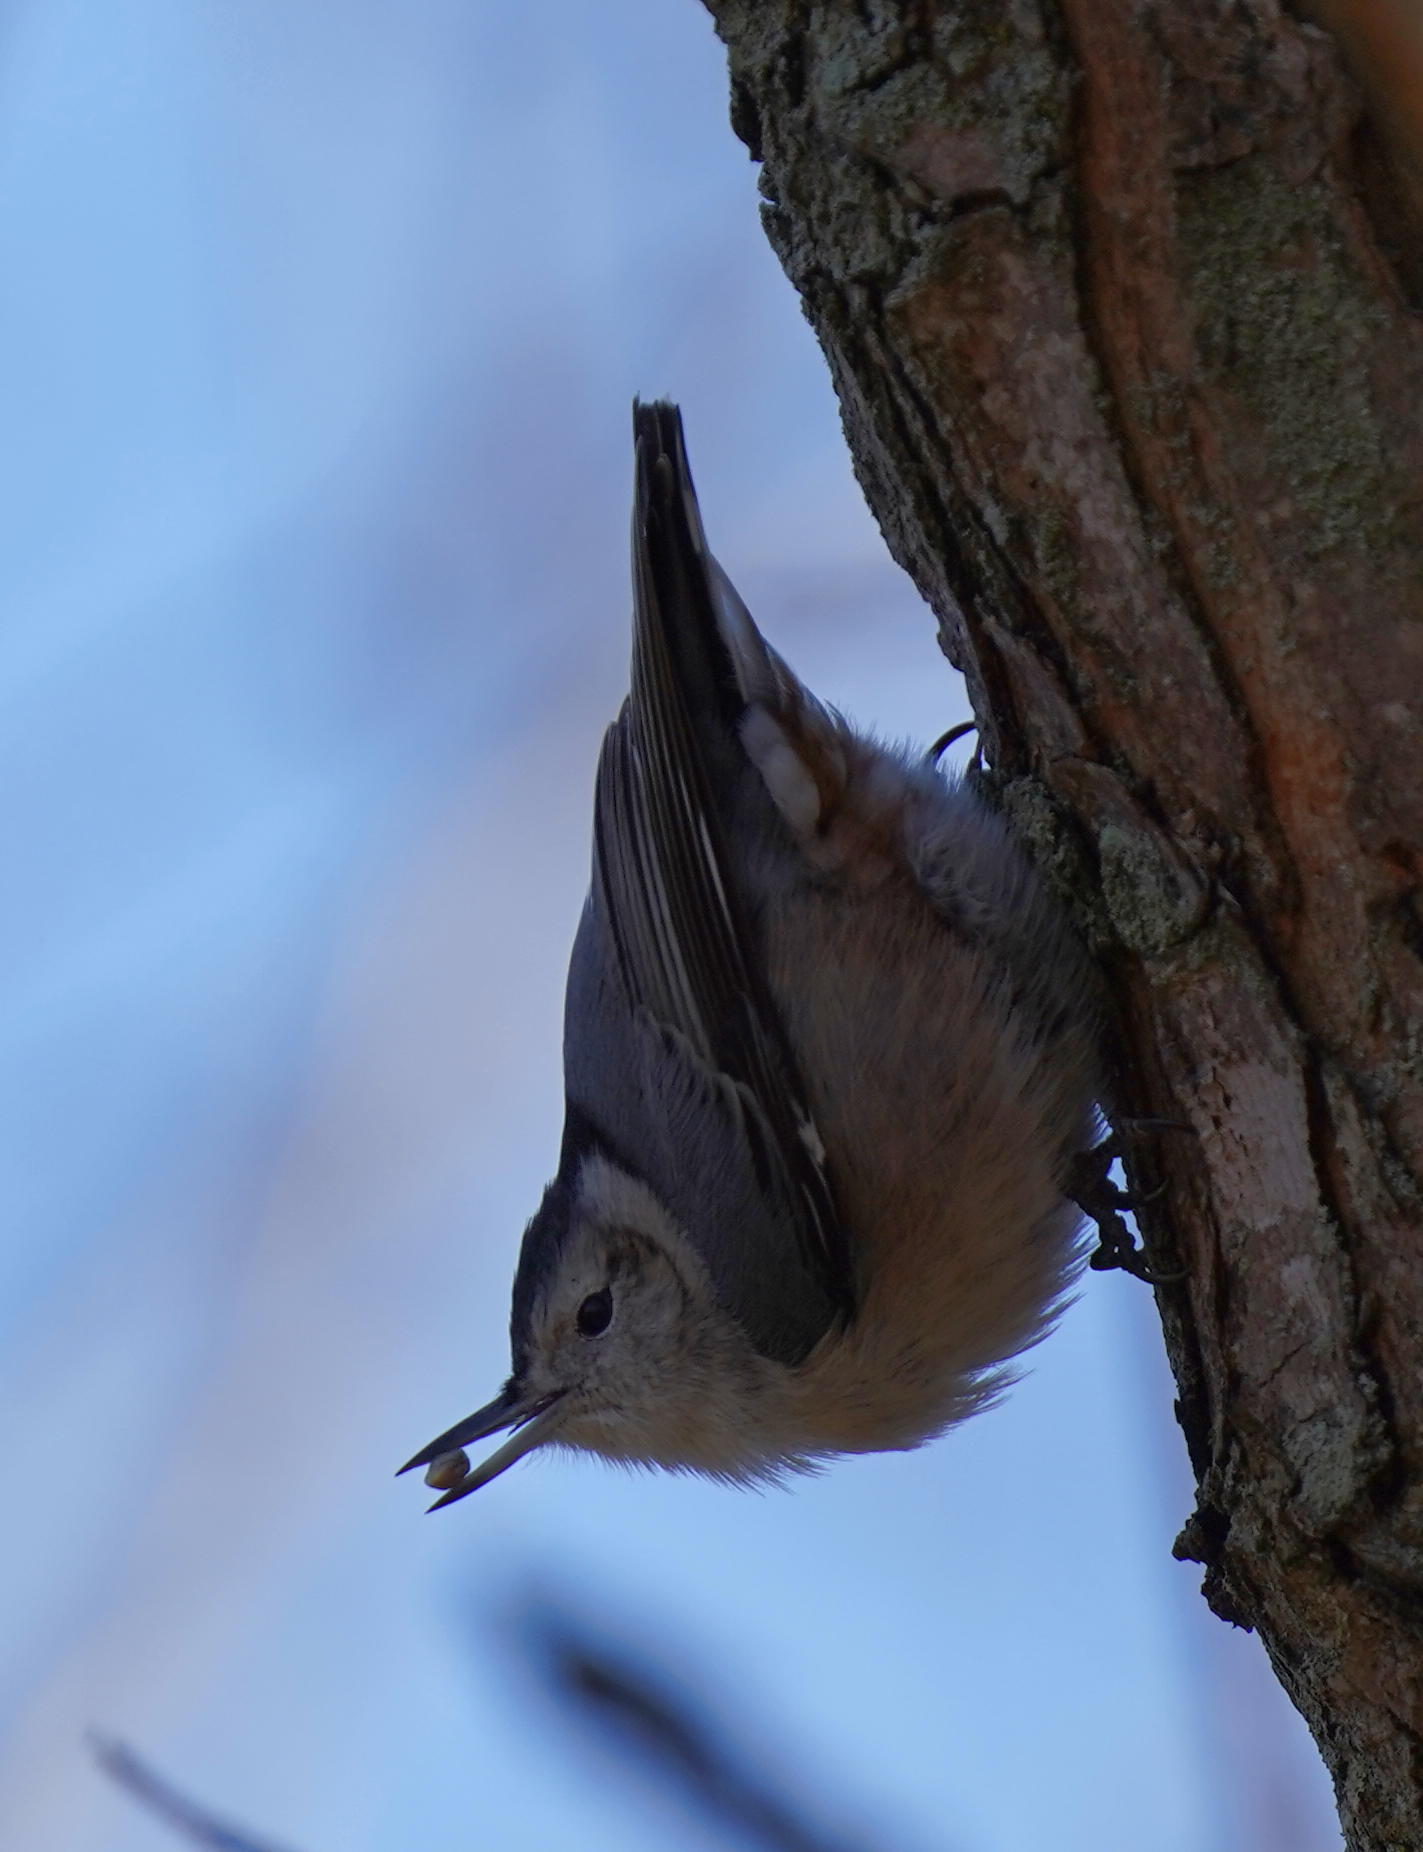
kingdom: Animalia
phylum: Chordata
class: Aves
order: Passeriformes
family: Sittidae
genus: Sitta
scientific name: Sitta carolinensis
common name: White-breasted nuthatch
